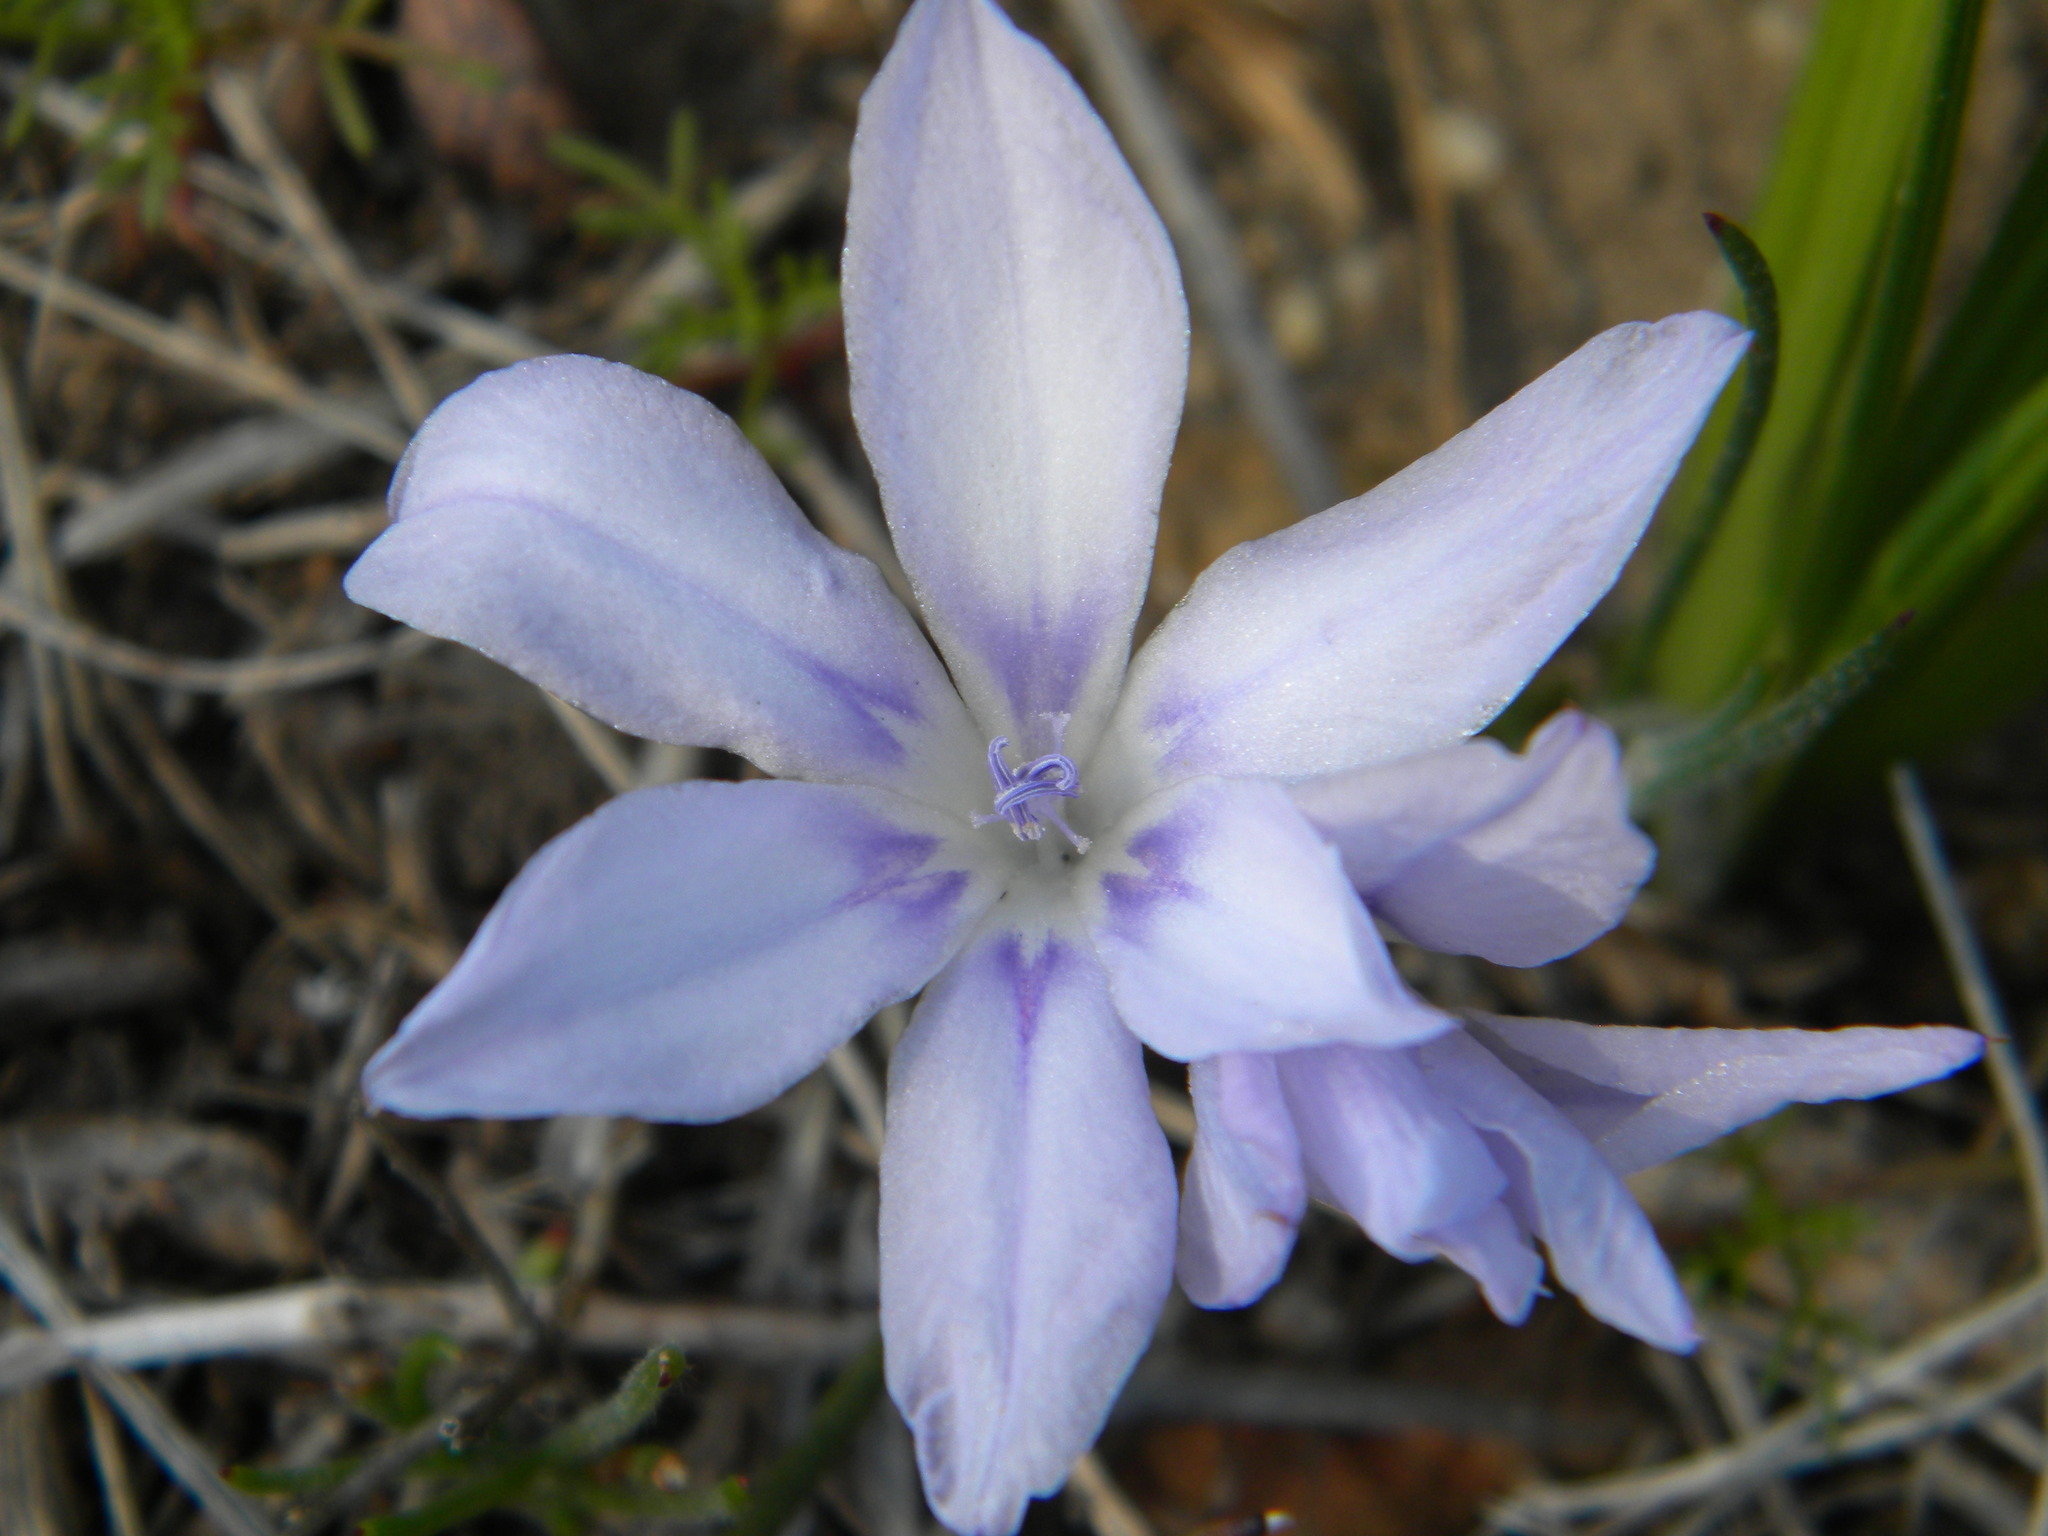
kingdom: Plantae
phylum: Tracheophyta
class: Liliopsida
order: Asparagales
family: Iridaceae
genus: Babiana
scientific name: Babiana villosula
